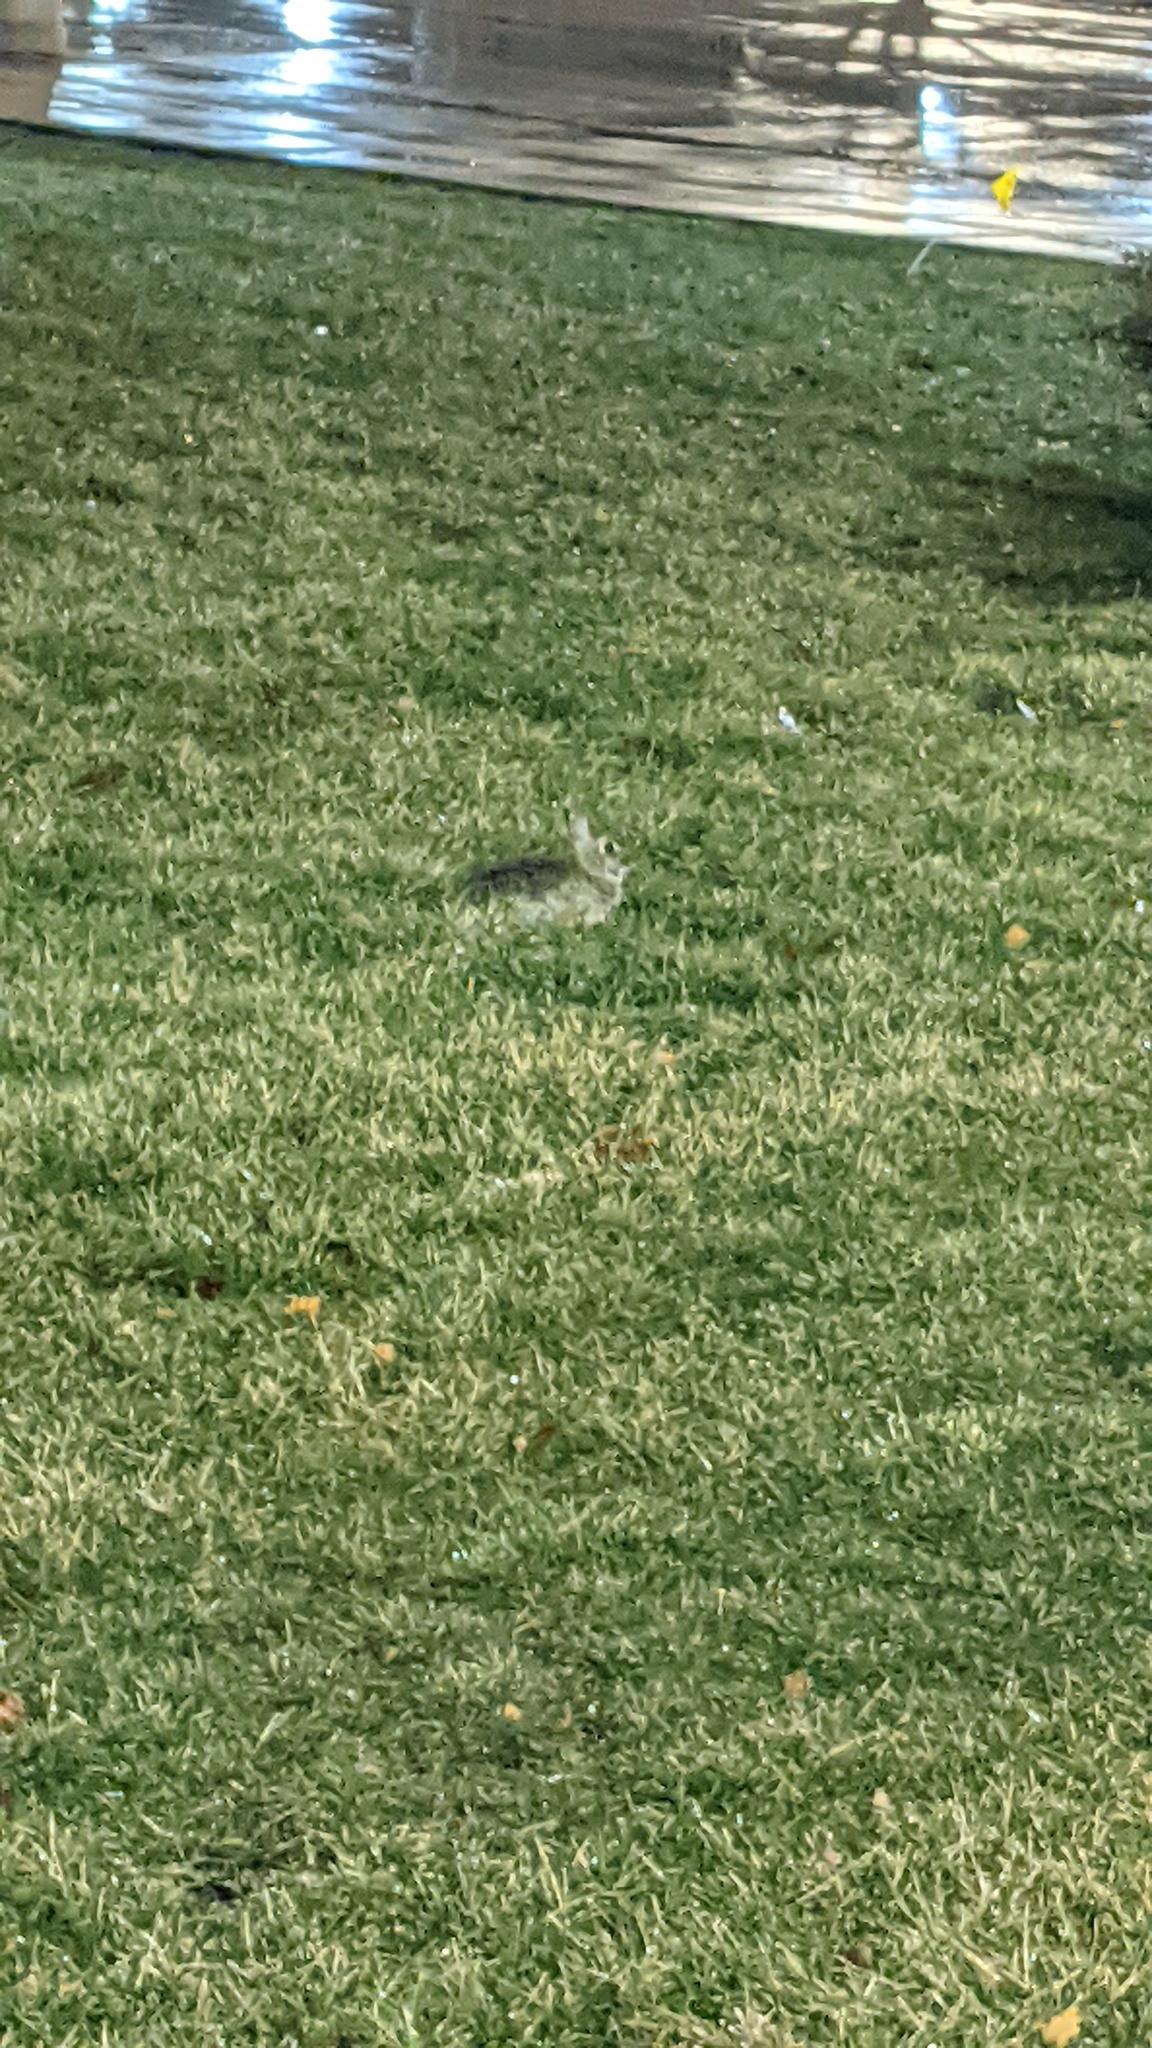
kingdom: Animalia
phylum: Chordata
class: Mammalia
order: Lagomorpha
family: Leporidae
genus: Sylvilagus
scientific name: Sylvilagus floridanus
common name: Eastern cottontail
